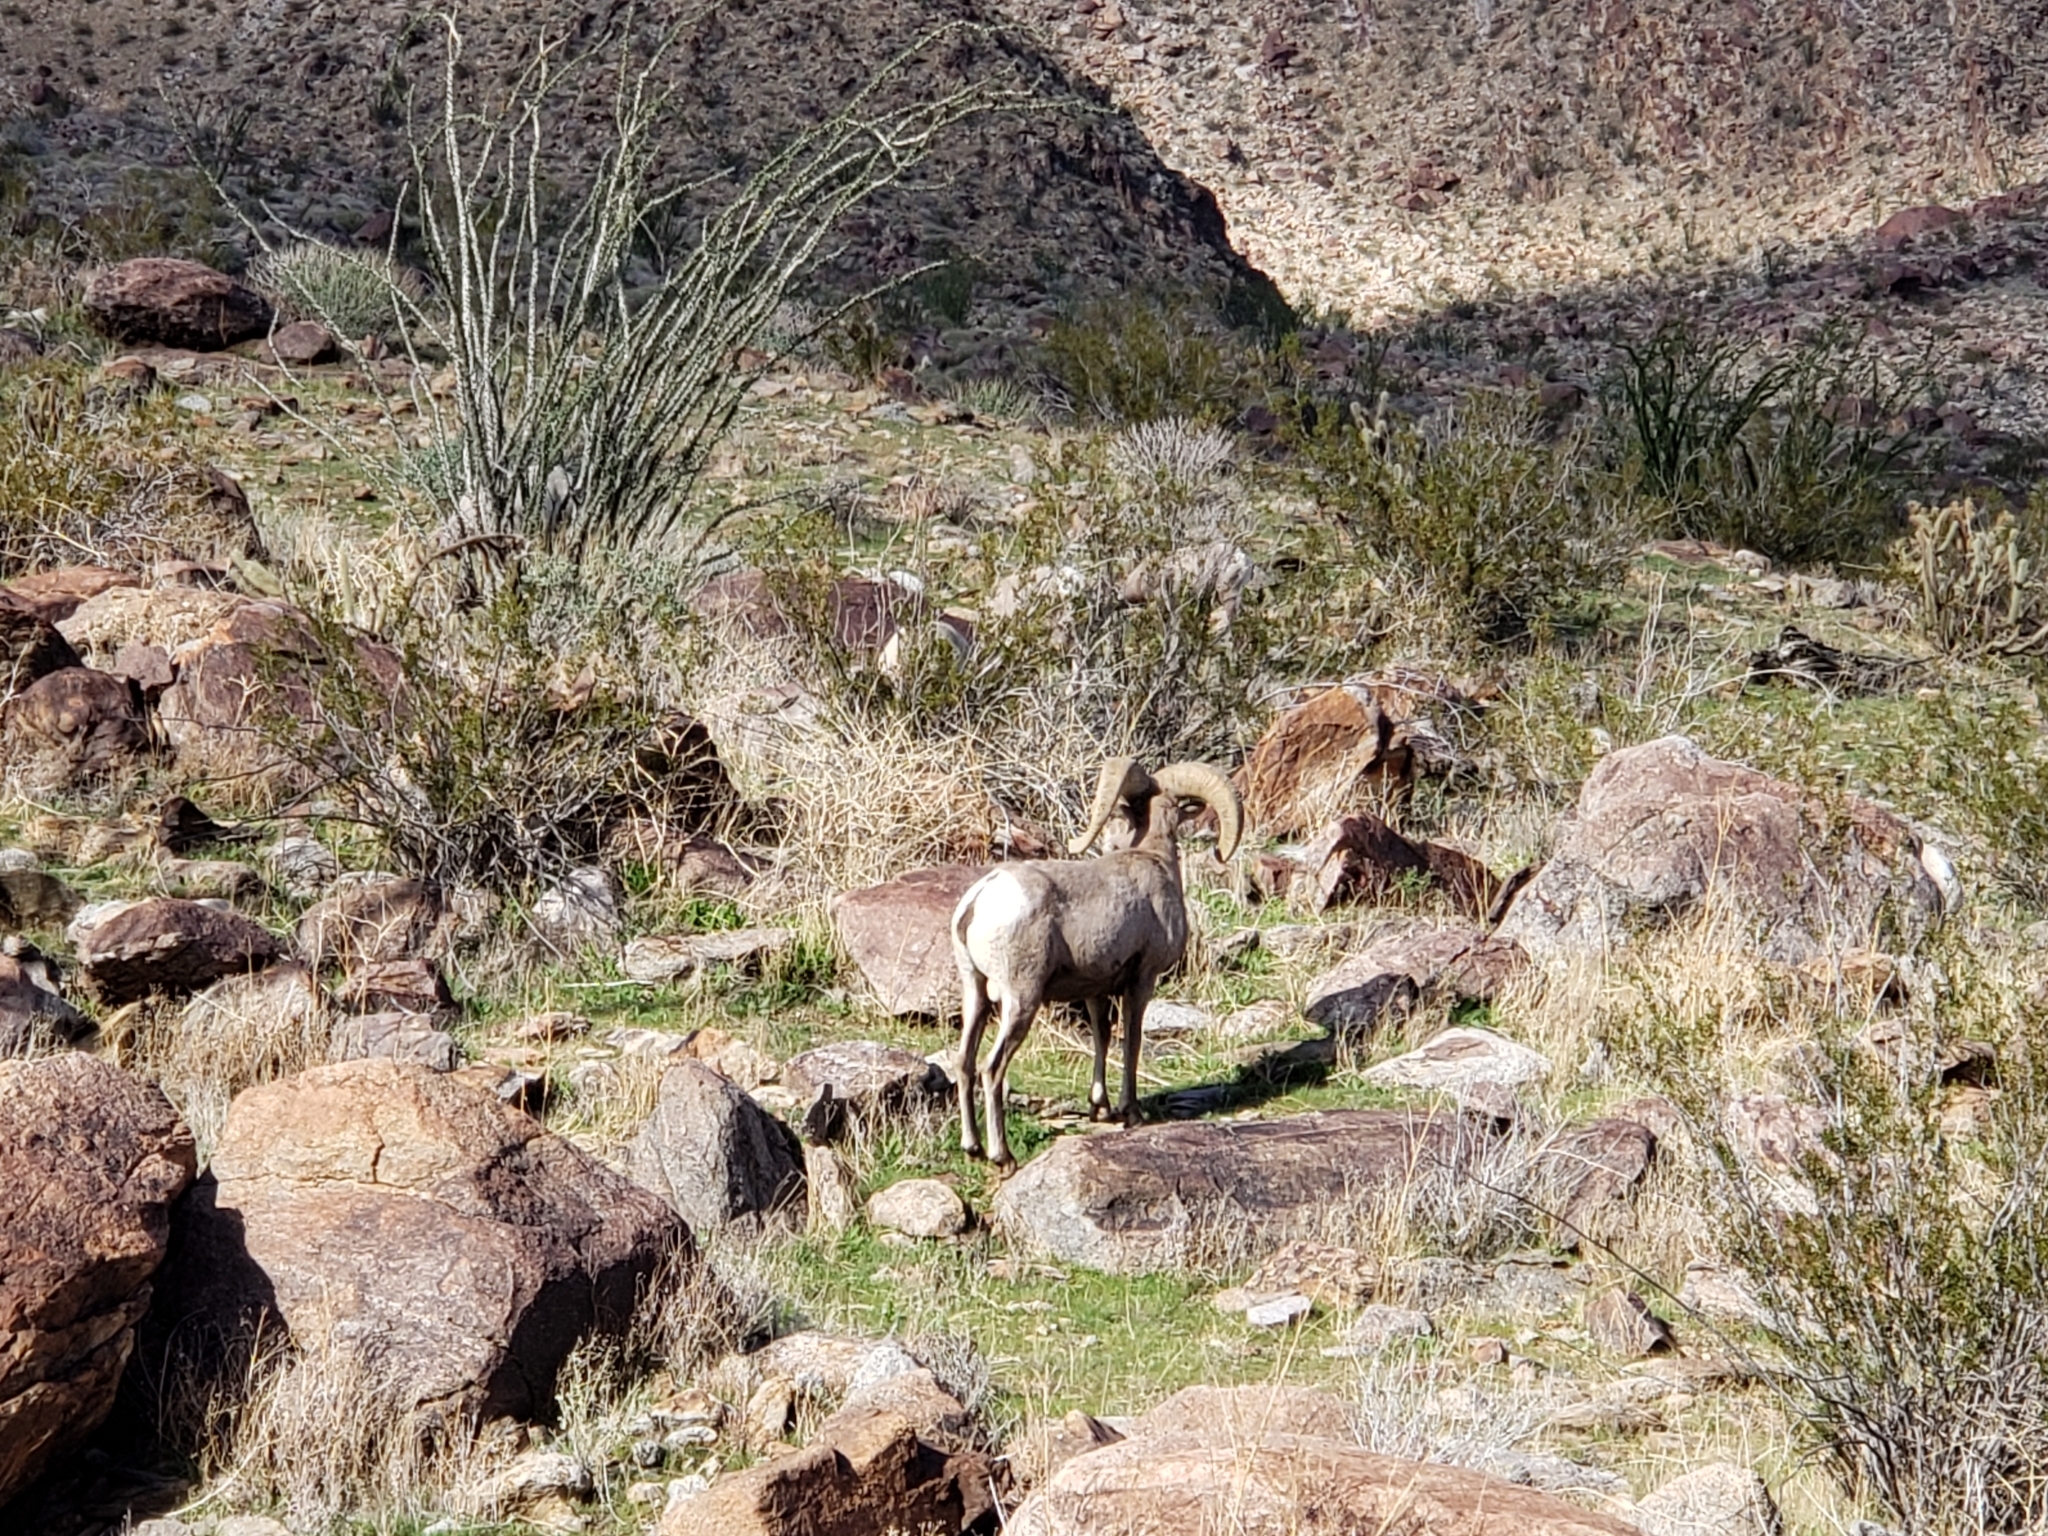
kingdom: Animalia
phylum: Chordata
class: Mammalia
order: Artiodactyla
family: Bovidae
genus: Ovis
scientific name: Ovis canadensis
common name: Bighorn sheep
